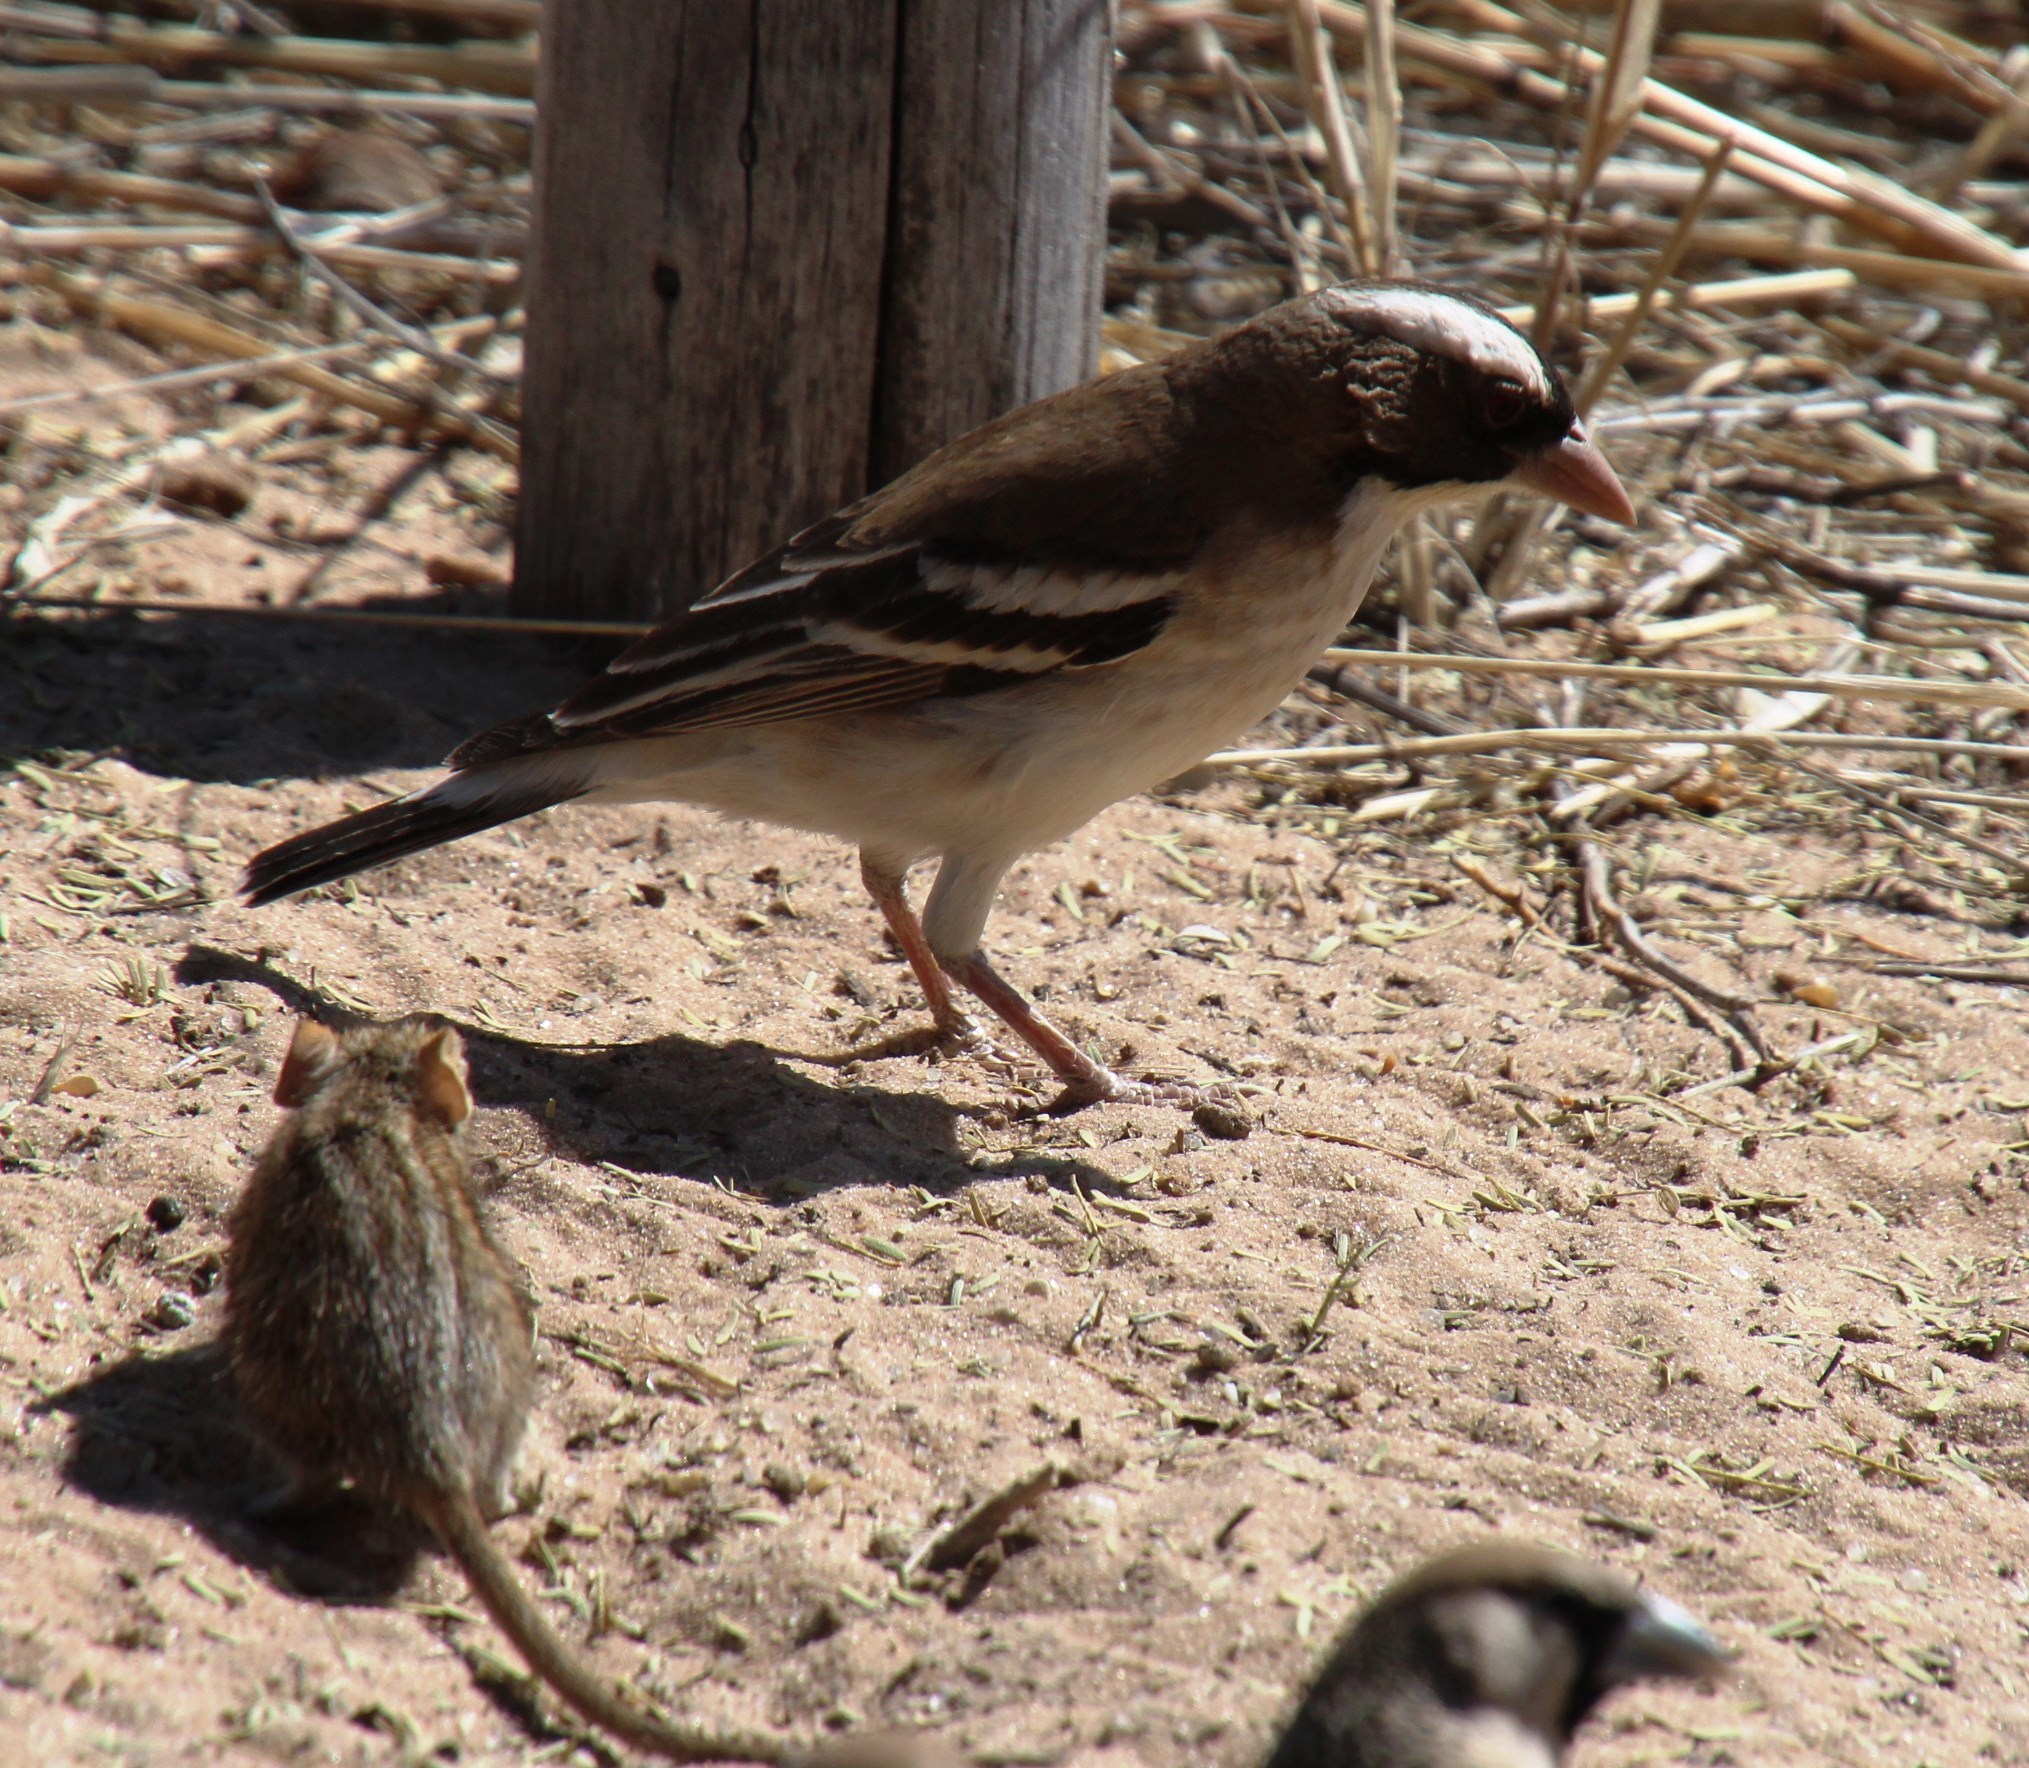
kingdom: Animalia
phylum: Chordata
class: Aves
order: Passeriformes
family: Passeridae
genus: Plocepasser
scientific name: Plocepasser mahali
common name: White-browed sparrow-weaver
